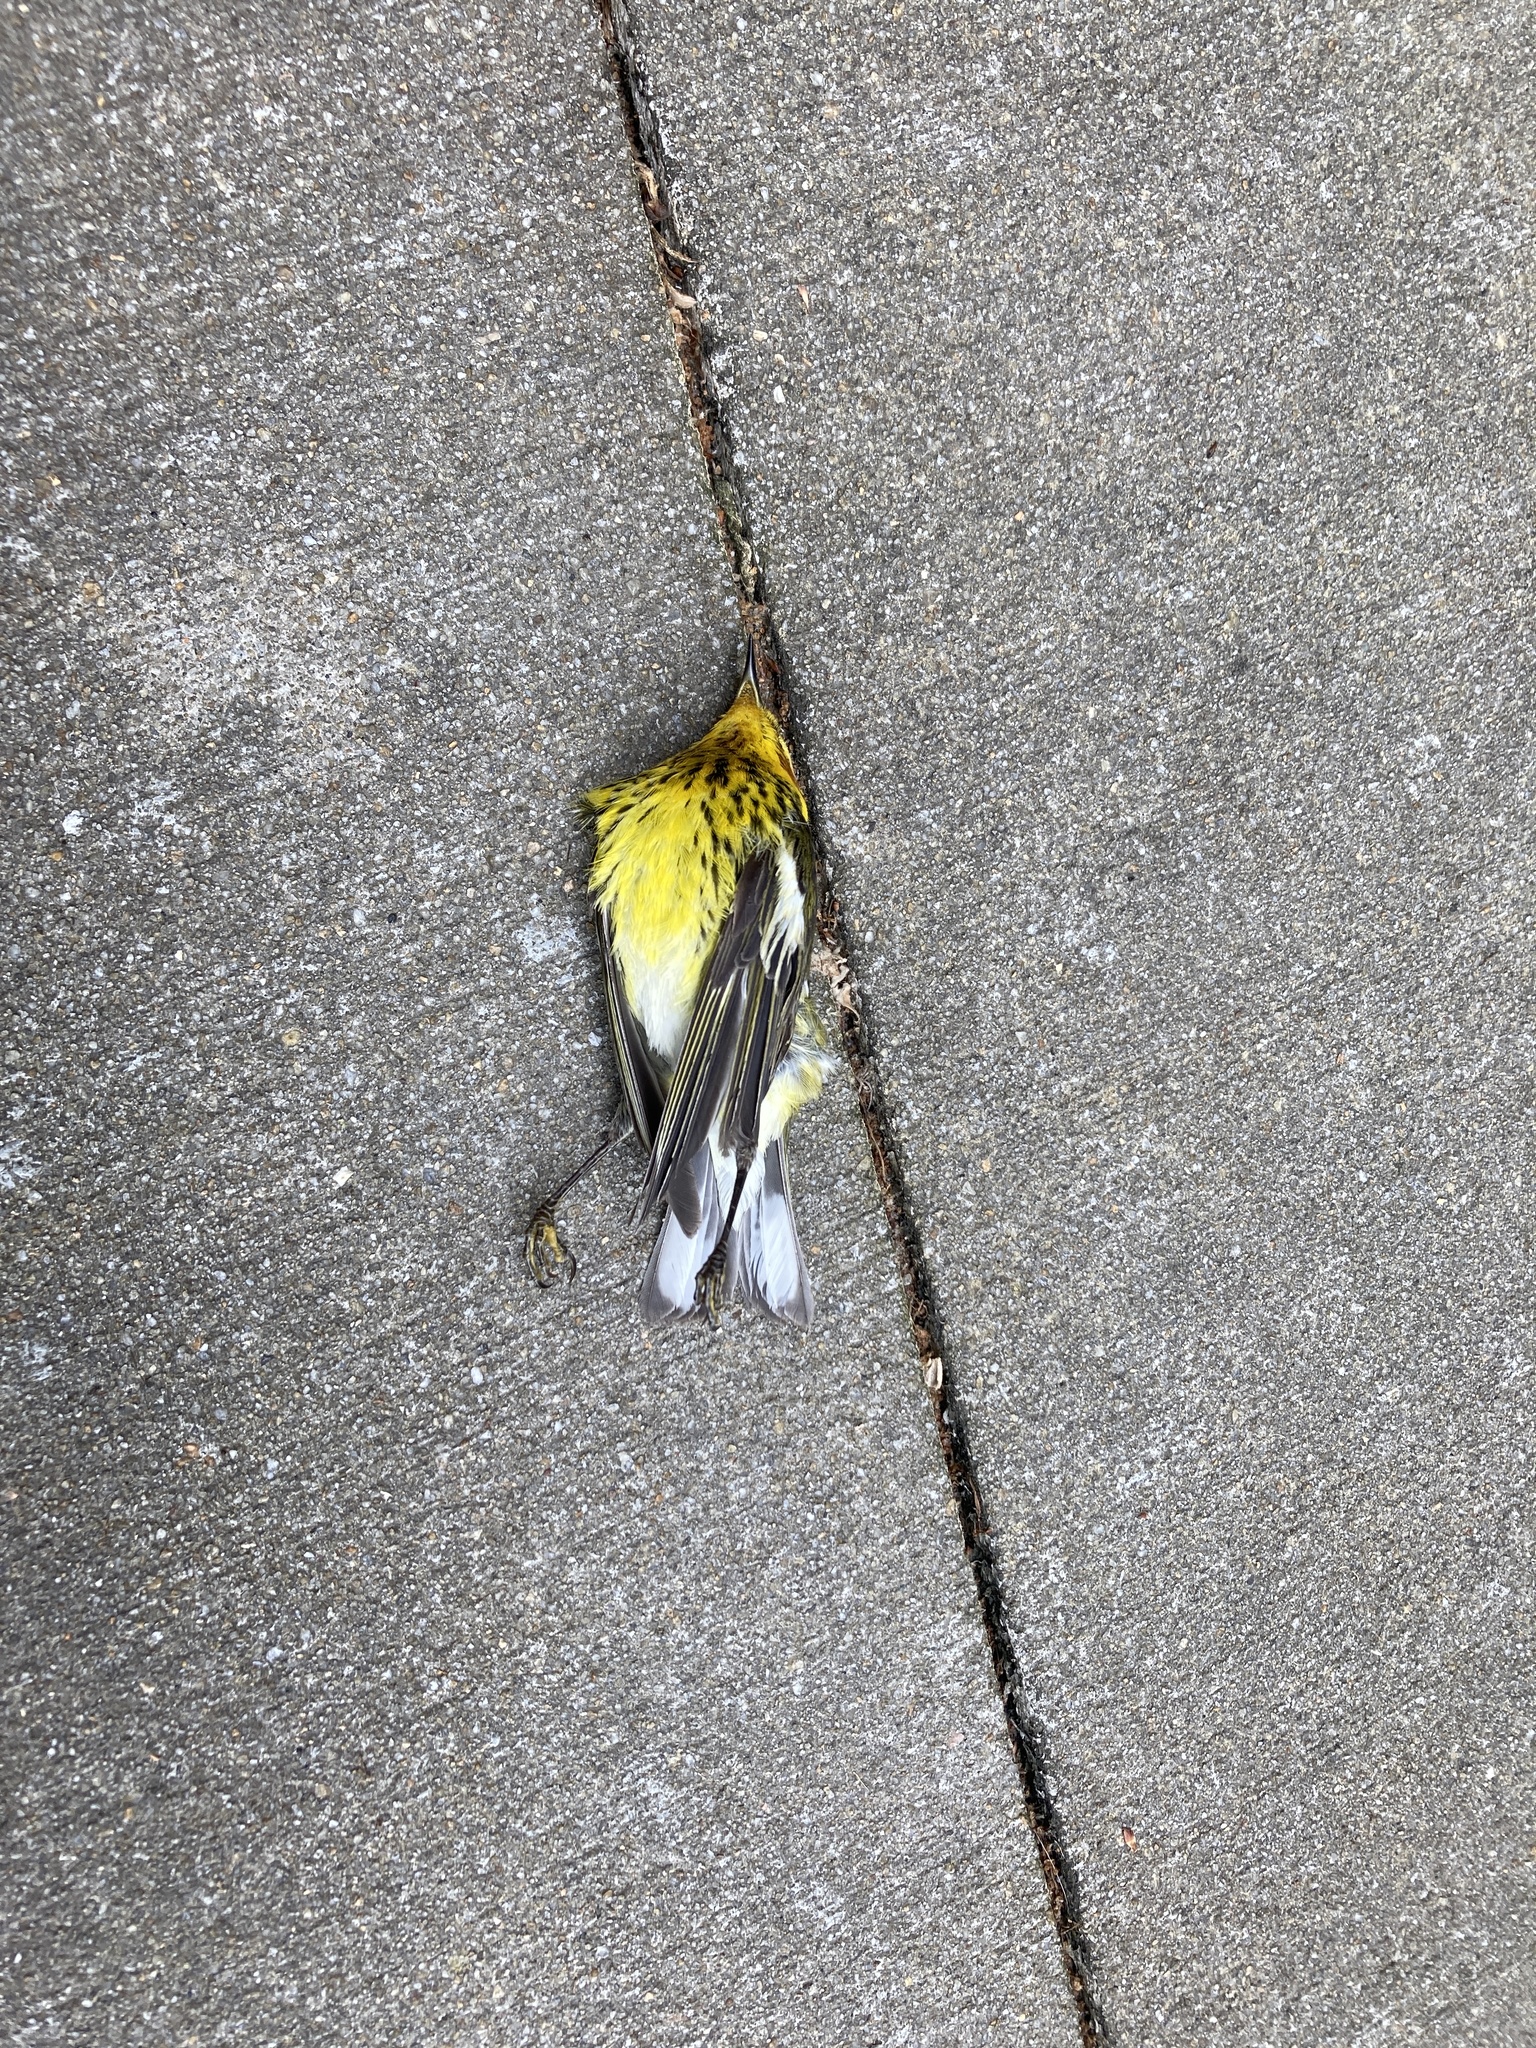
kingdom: Animalia
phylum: Chordata
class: Aves
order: Passeriformes
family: Parulidae
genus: Setophaga
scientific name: Setophaga tigrina
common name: Cape may warbler
